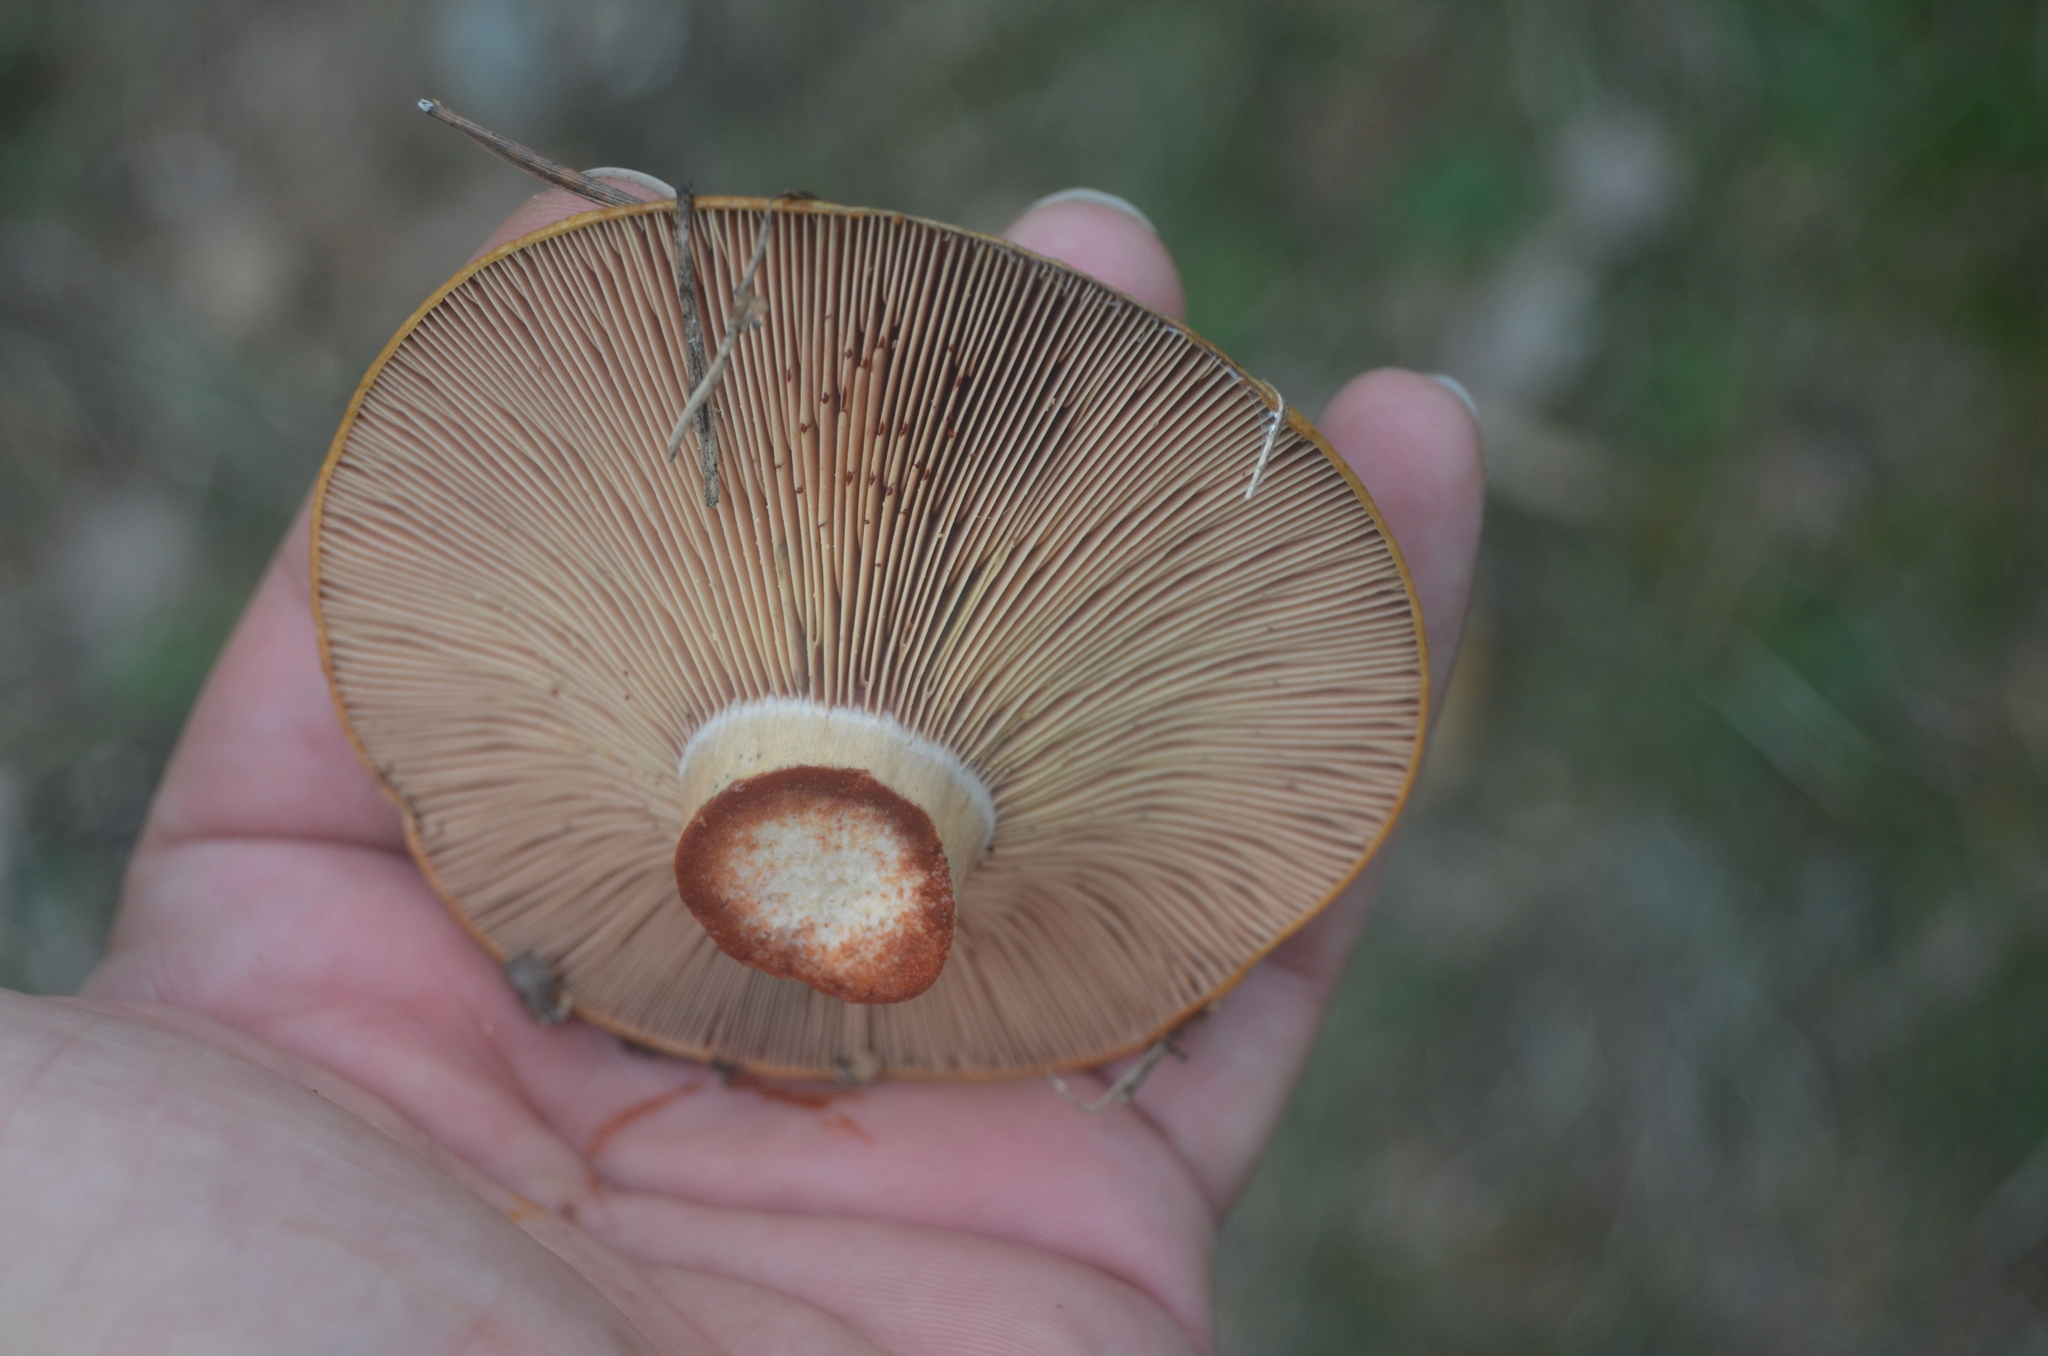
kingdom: Fungi
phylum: Basidiomycota
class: Agaricomycetes
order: Russulales
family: Russulaceae
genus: Lactarius
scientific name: Lactarius sanguifluus
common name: Bloody milkcap
